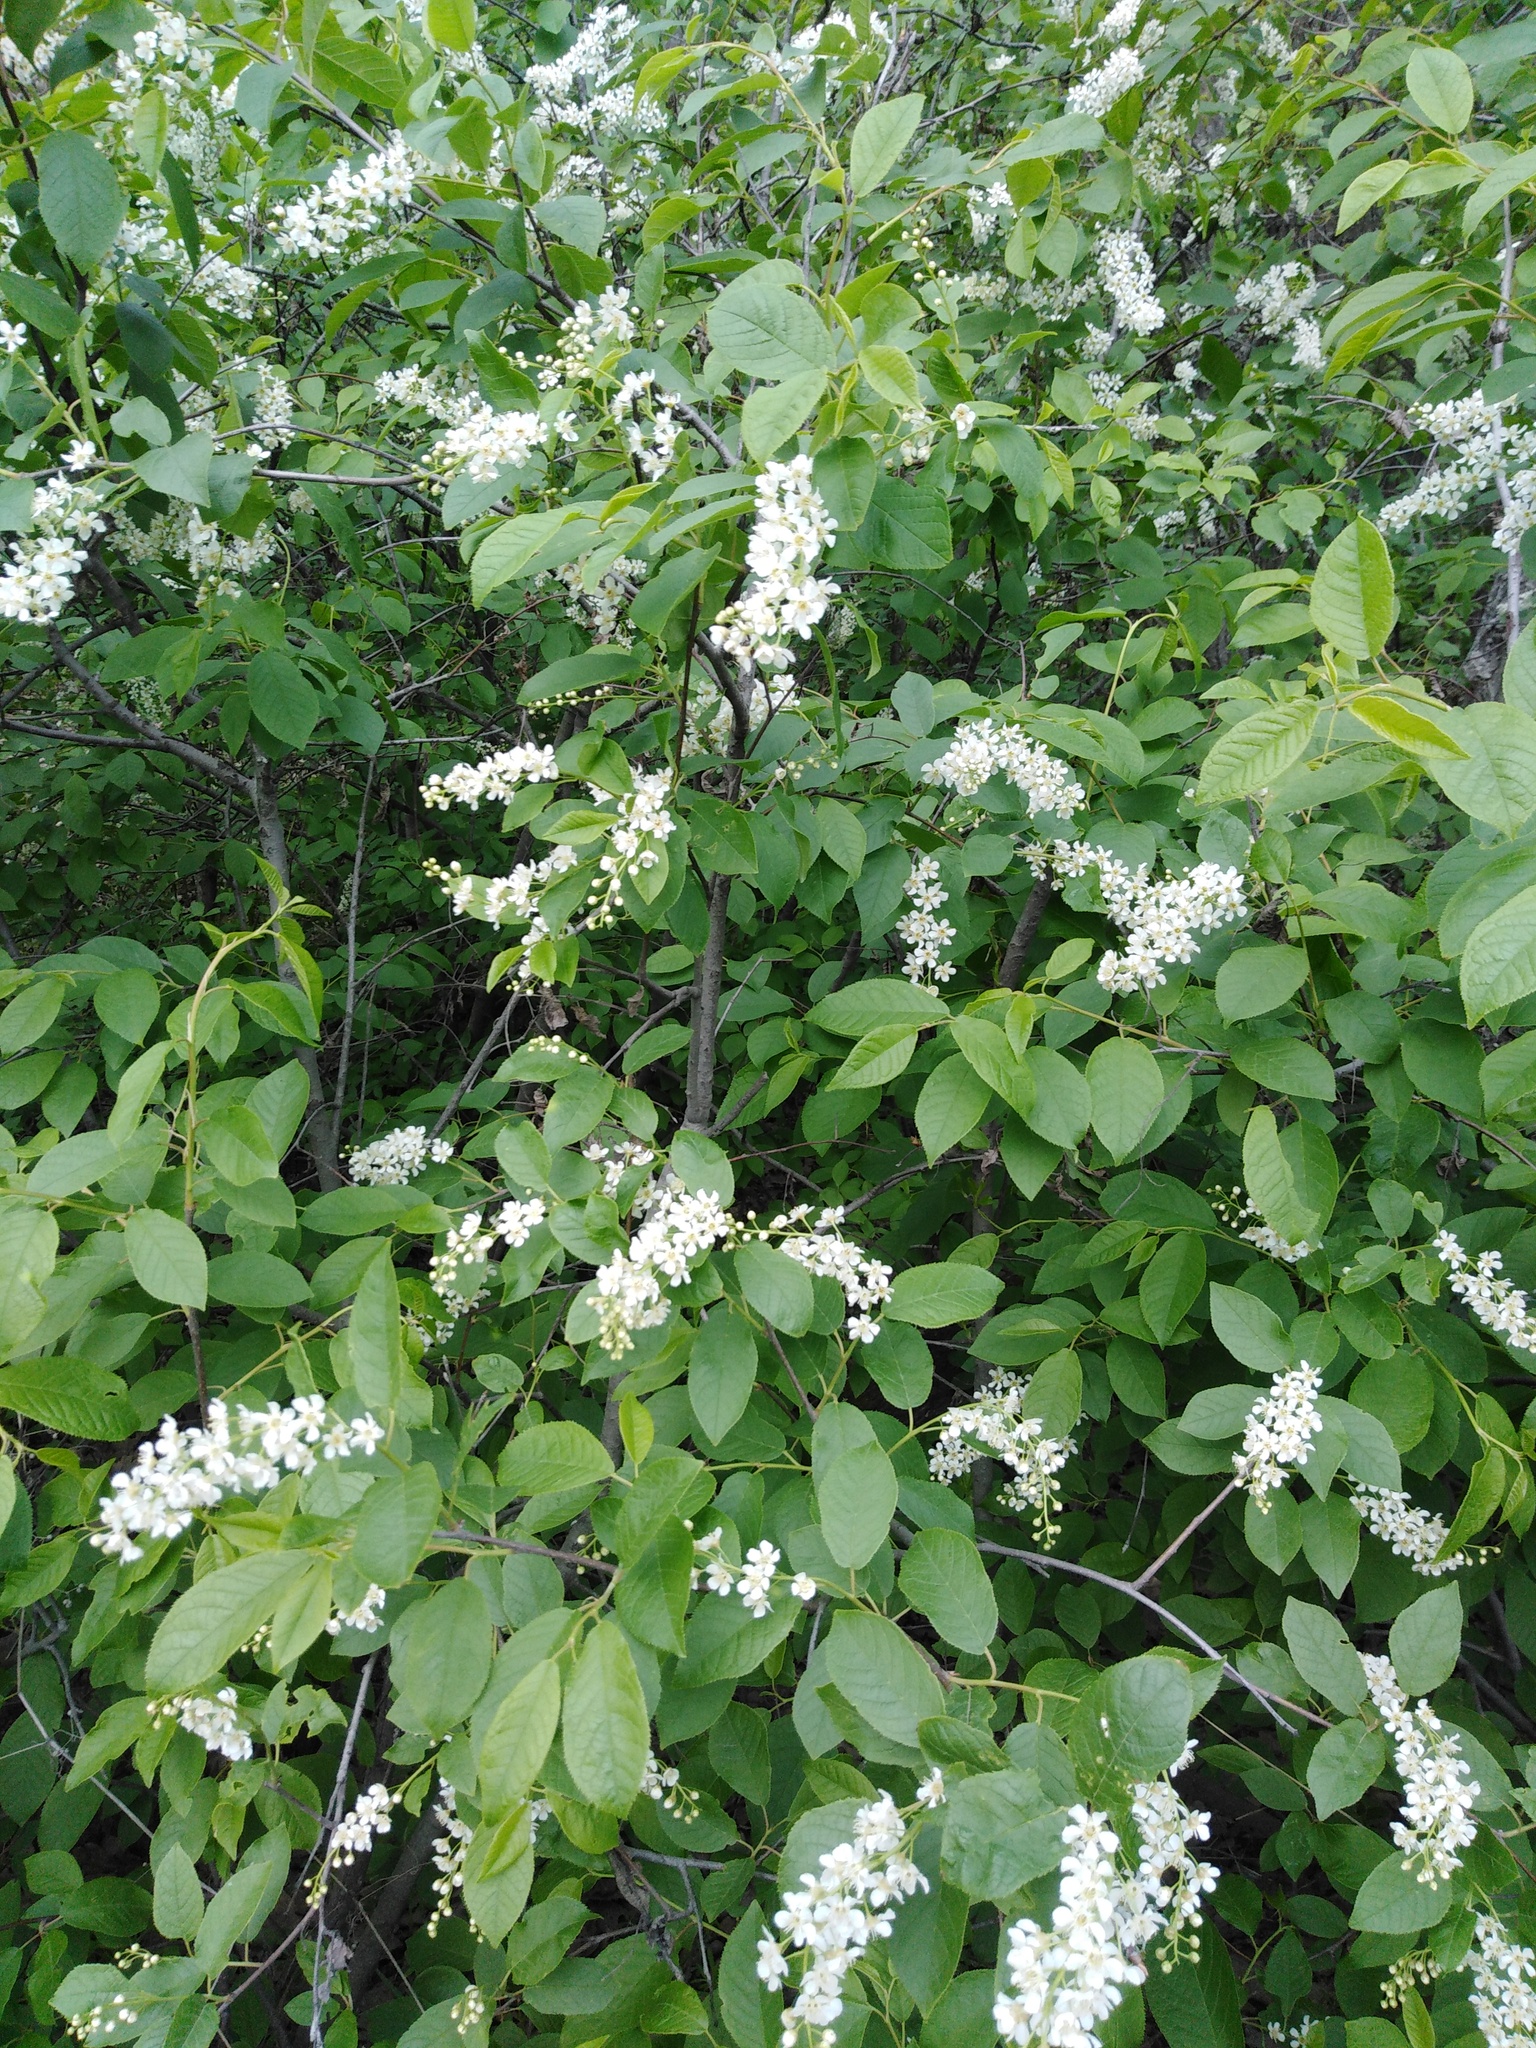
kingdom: Plantae
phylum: Tracheophyta
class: Magnoliopsida
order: Rosales
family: Rosaceae
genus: Prunus
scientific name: Prunus padus
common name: Bird cherry
